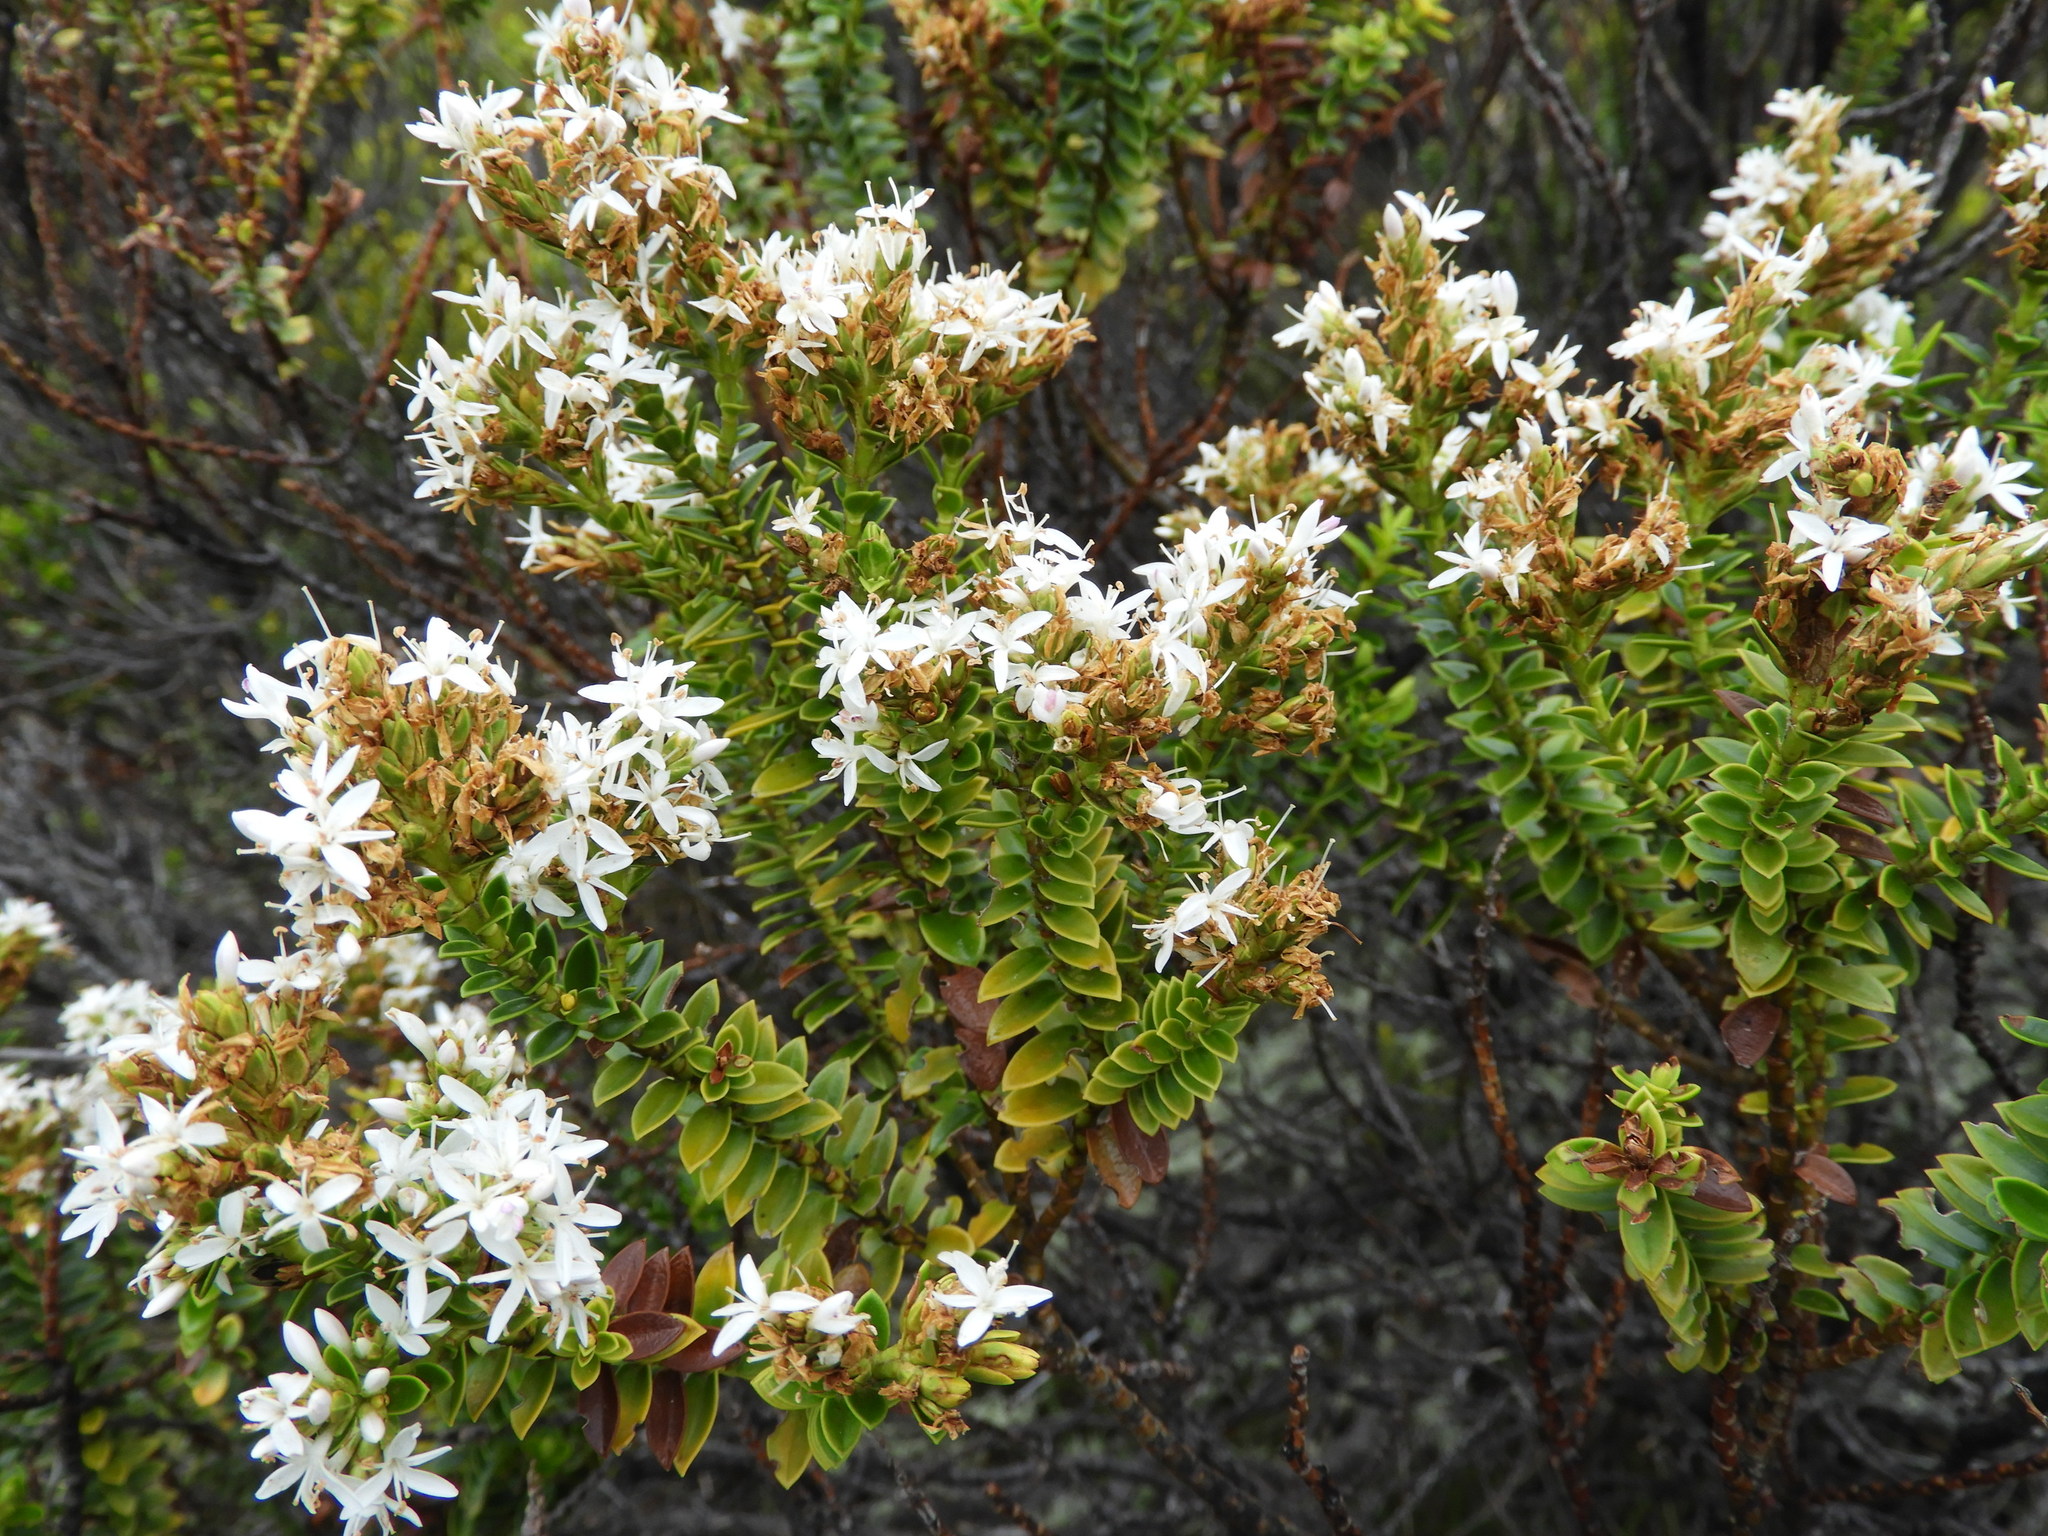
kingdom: Plantae
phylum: Tracheophyta
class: Magnoliopsida
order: Lamiales
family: Plantaginaceae
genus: Veronica
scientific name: Veronica odora
